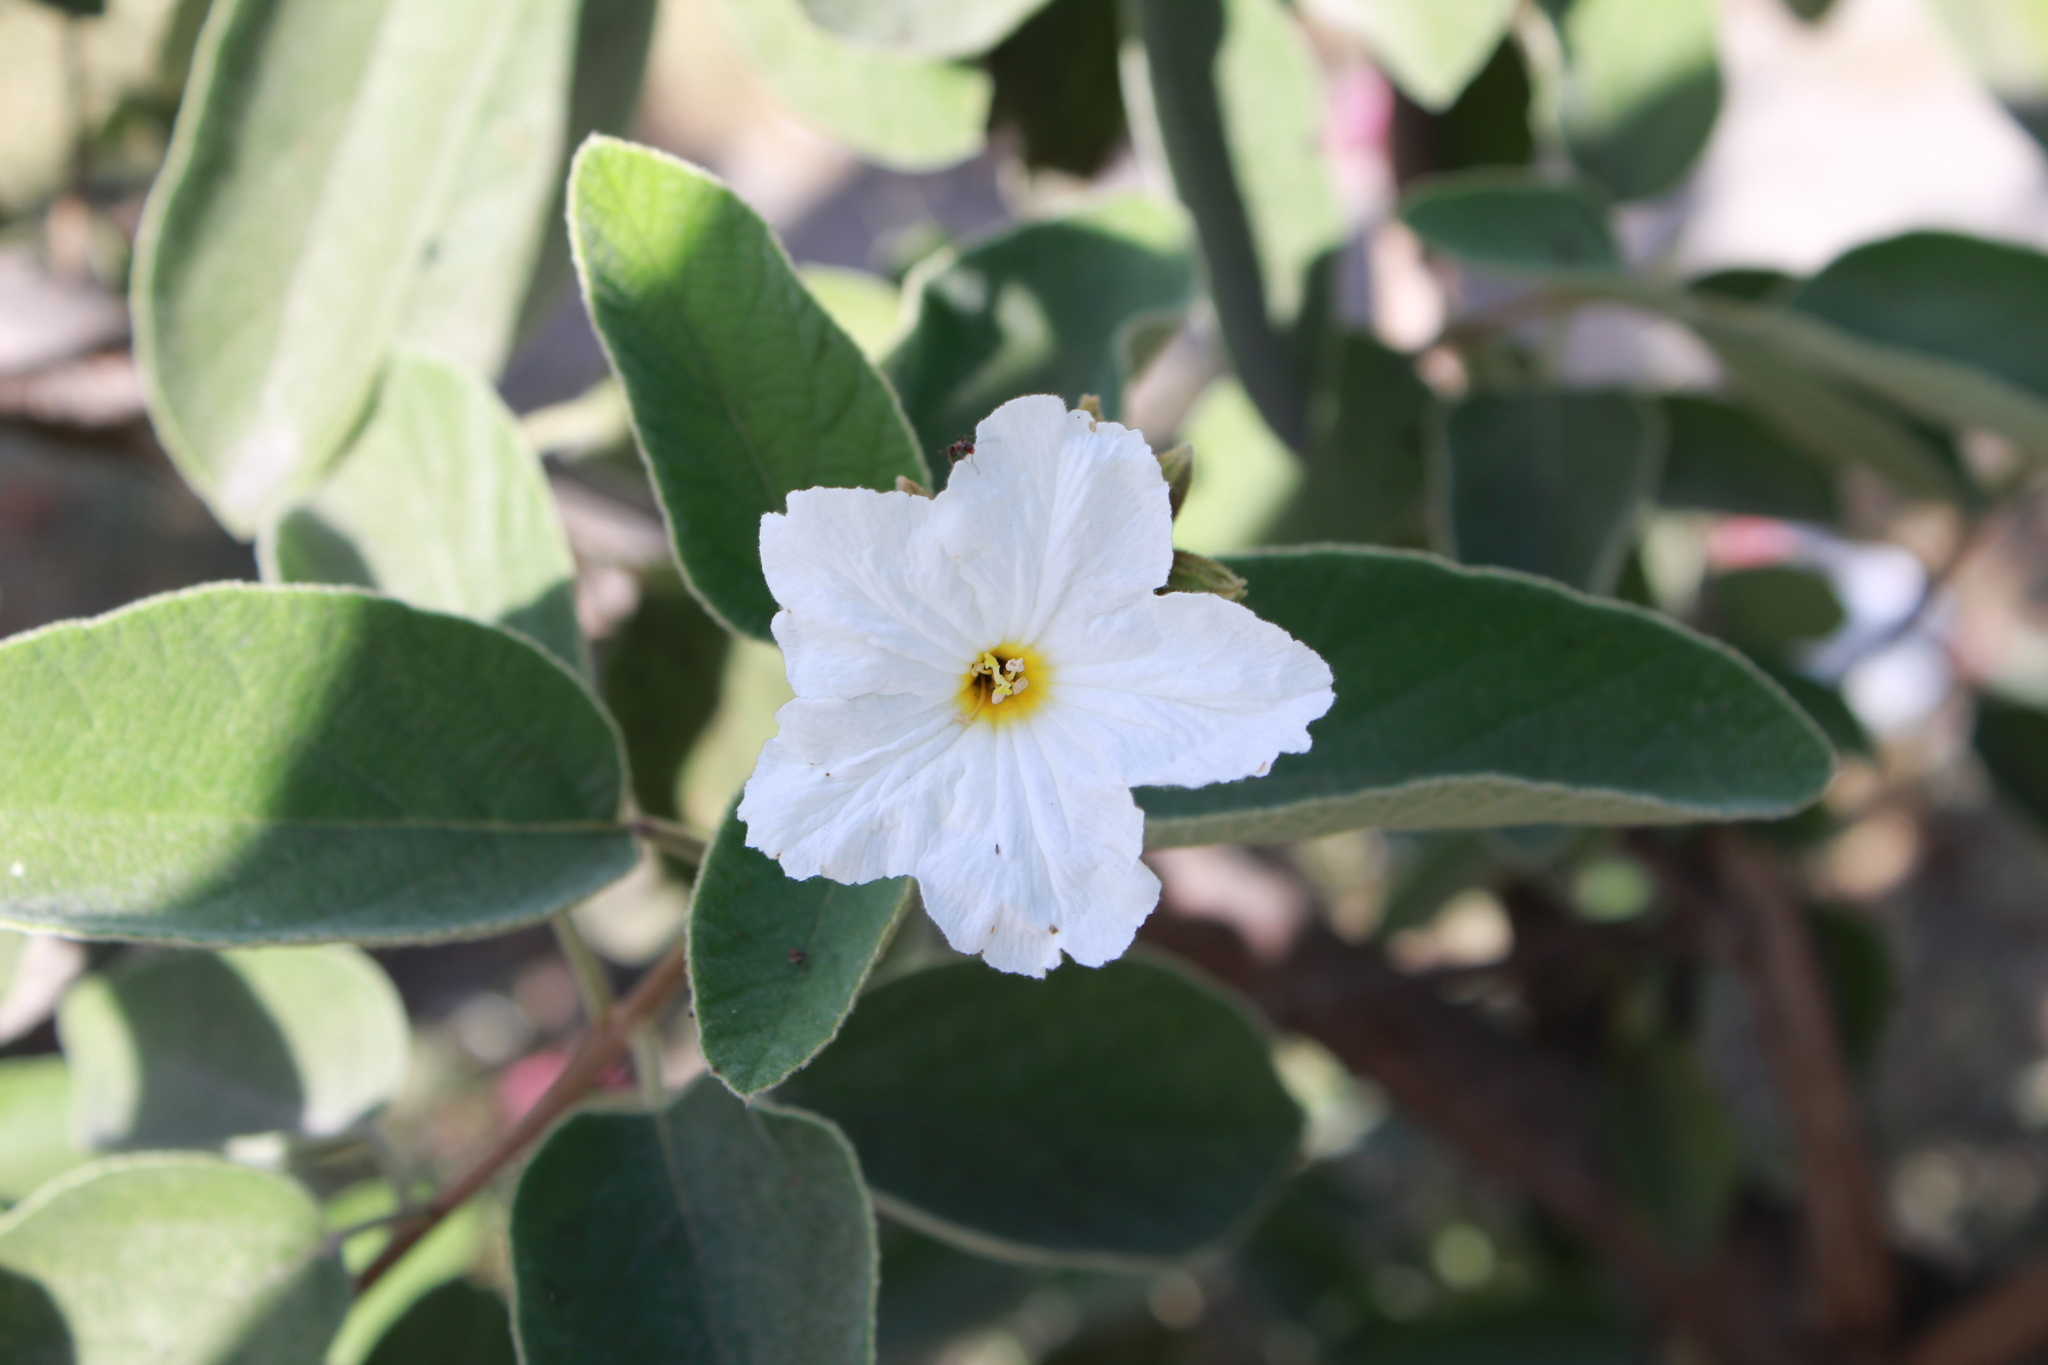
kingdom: Plantae
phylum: Tracheophyta
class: Magnoliopsida
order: Boraginales
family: Cordiaceae
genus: Cordia
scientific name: Cordia boissieri
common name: Mexican-olive
